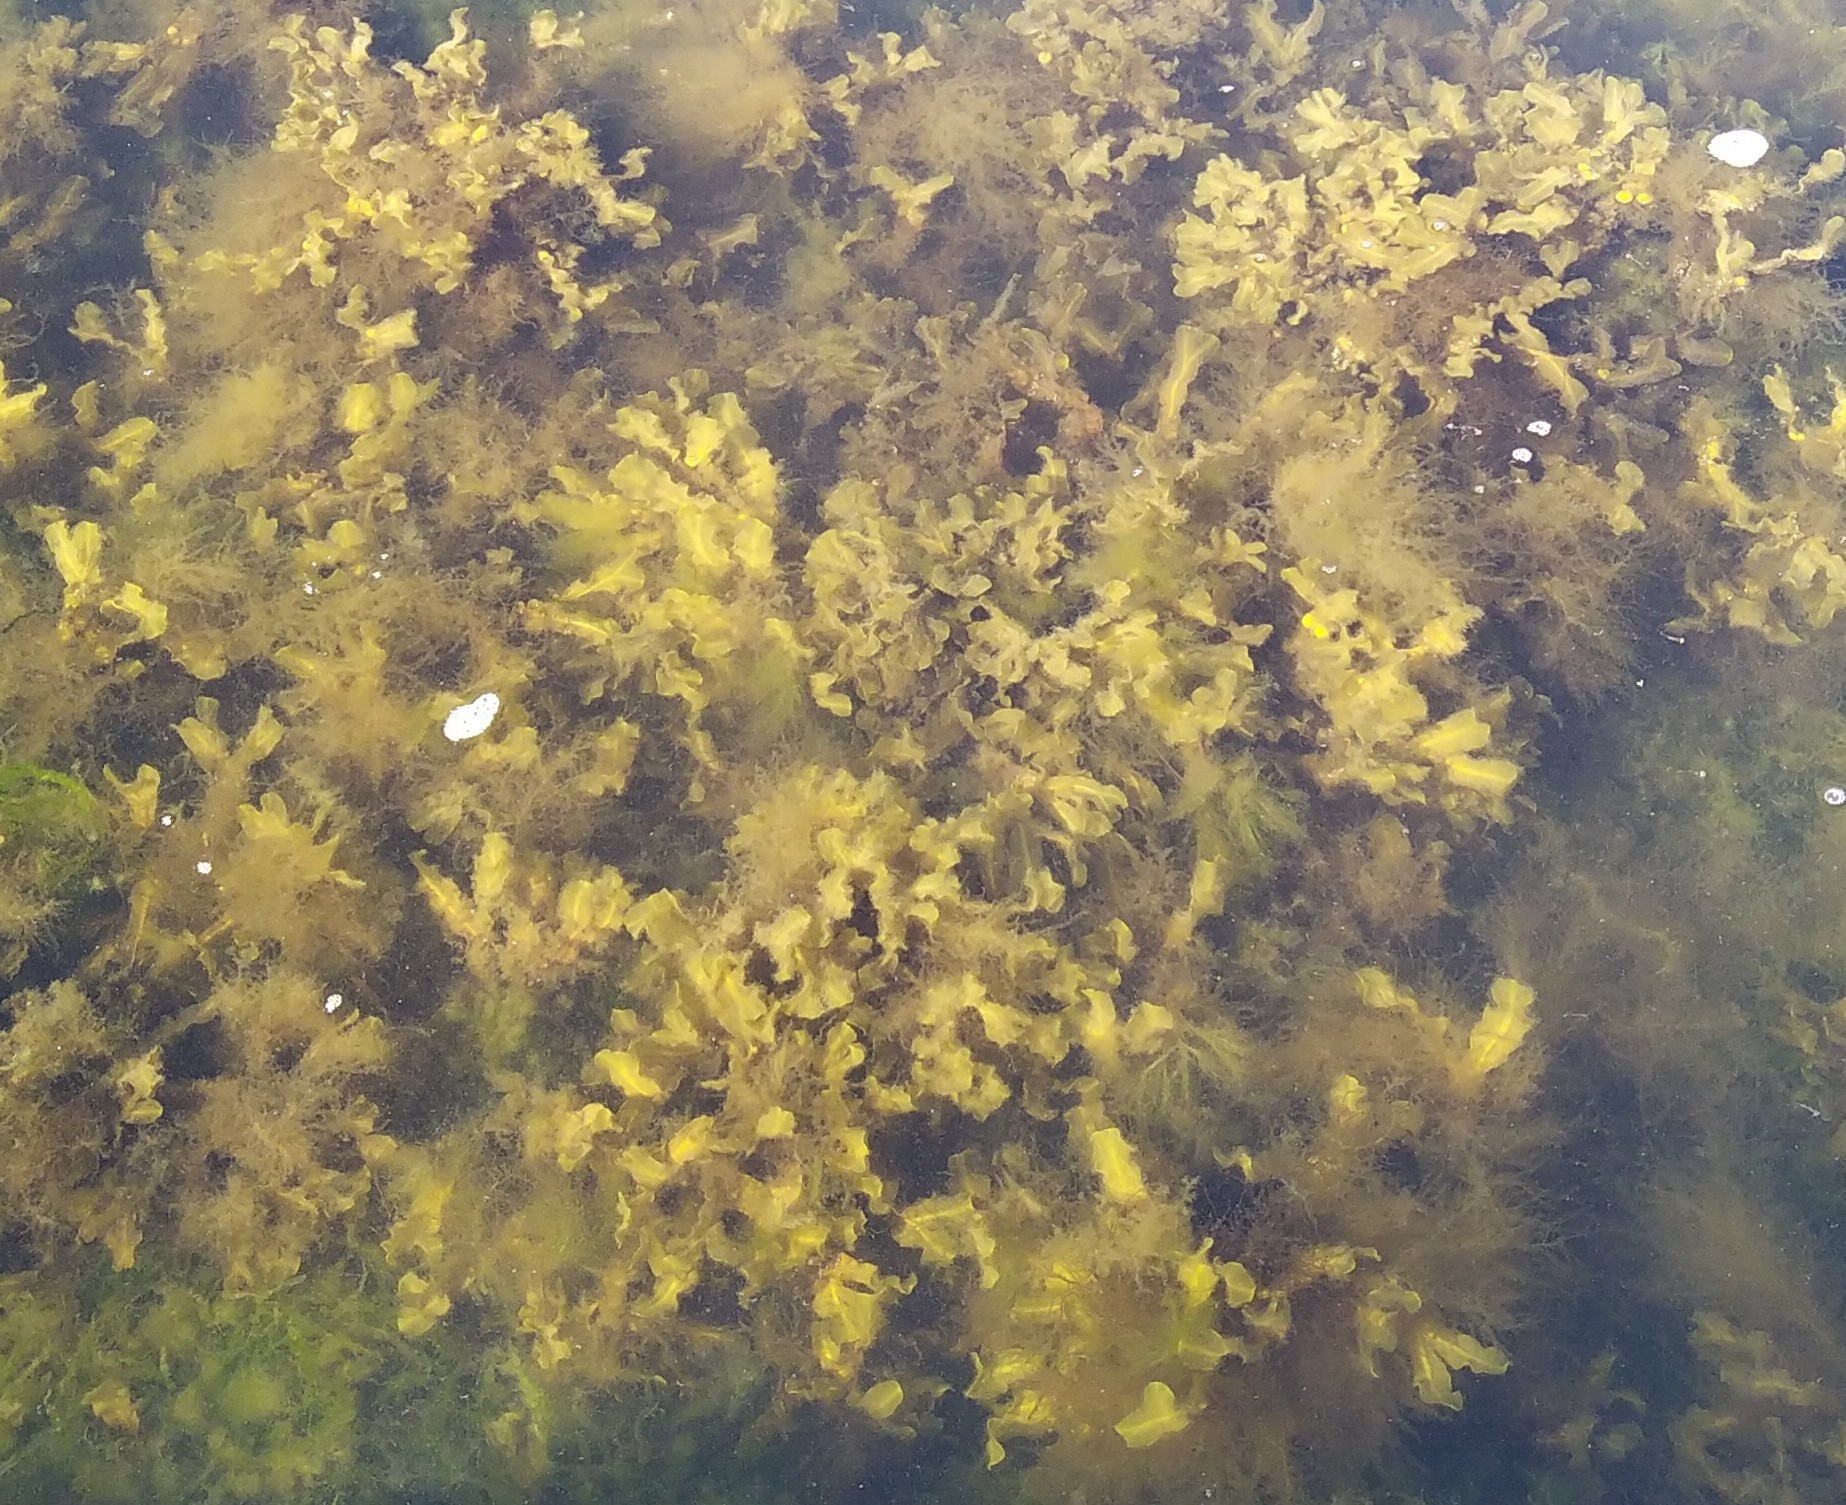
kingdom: Chromista
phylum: Ochrophyta
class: Phaeophyceae
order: Fucales
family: Fucaceae
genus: Fucus
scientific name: Fucus vesiculosus
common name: Bladder wrack
